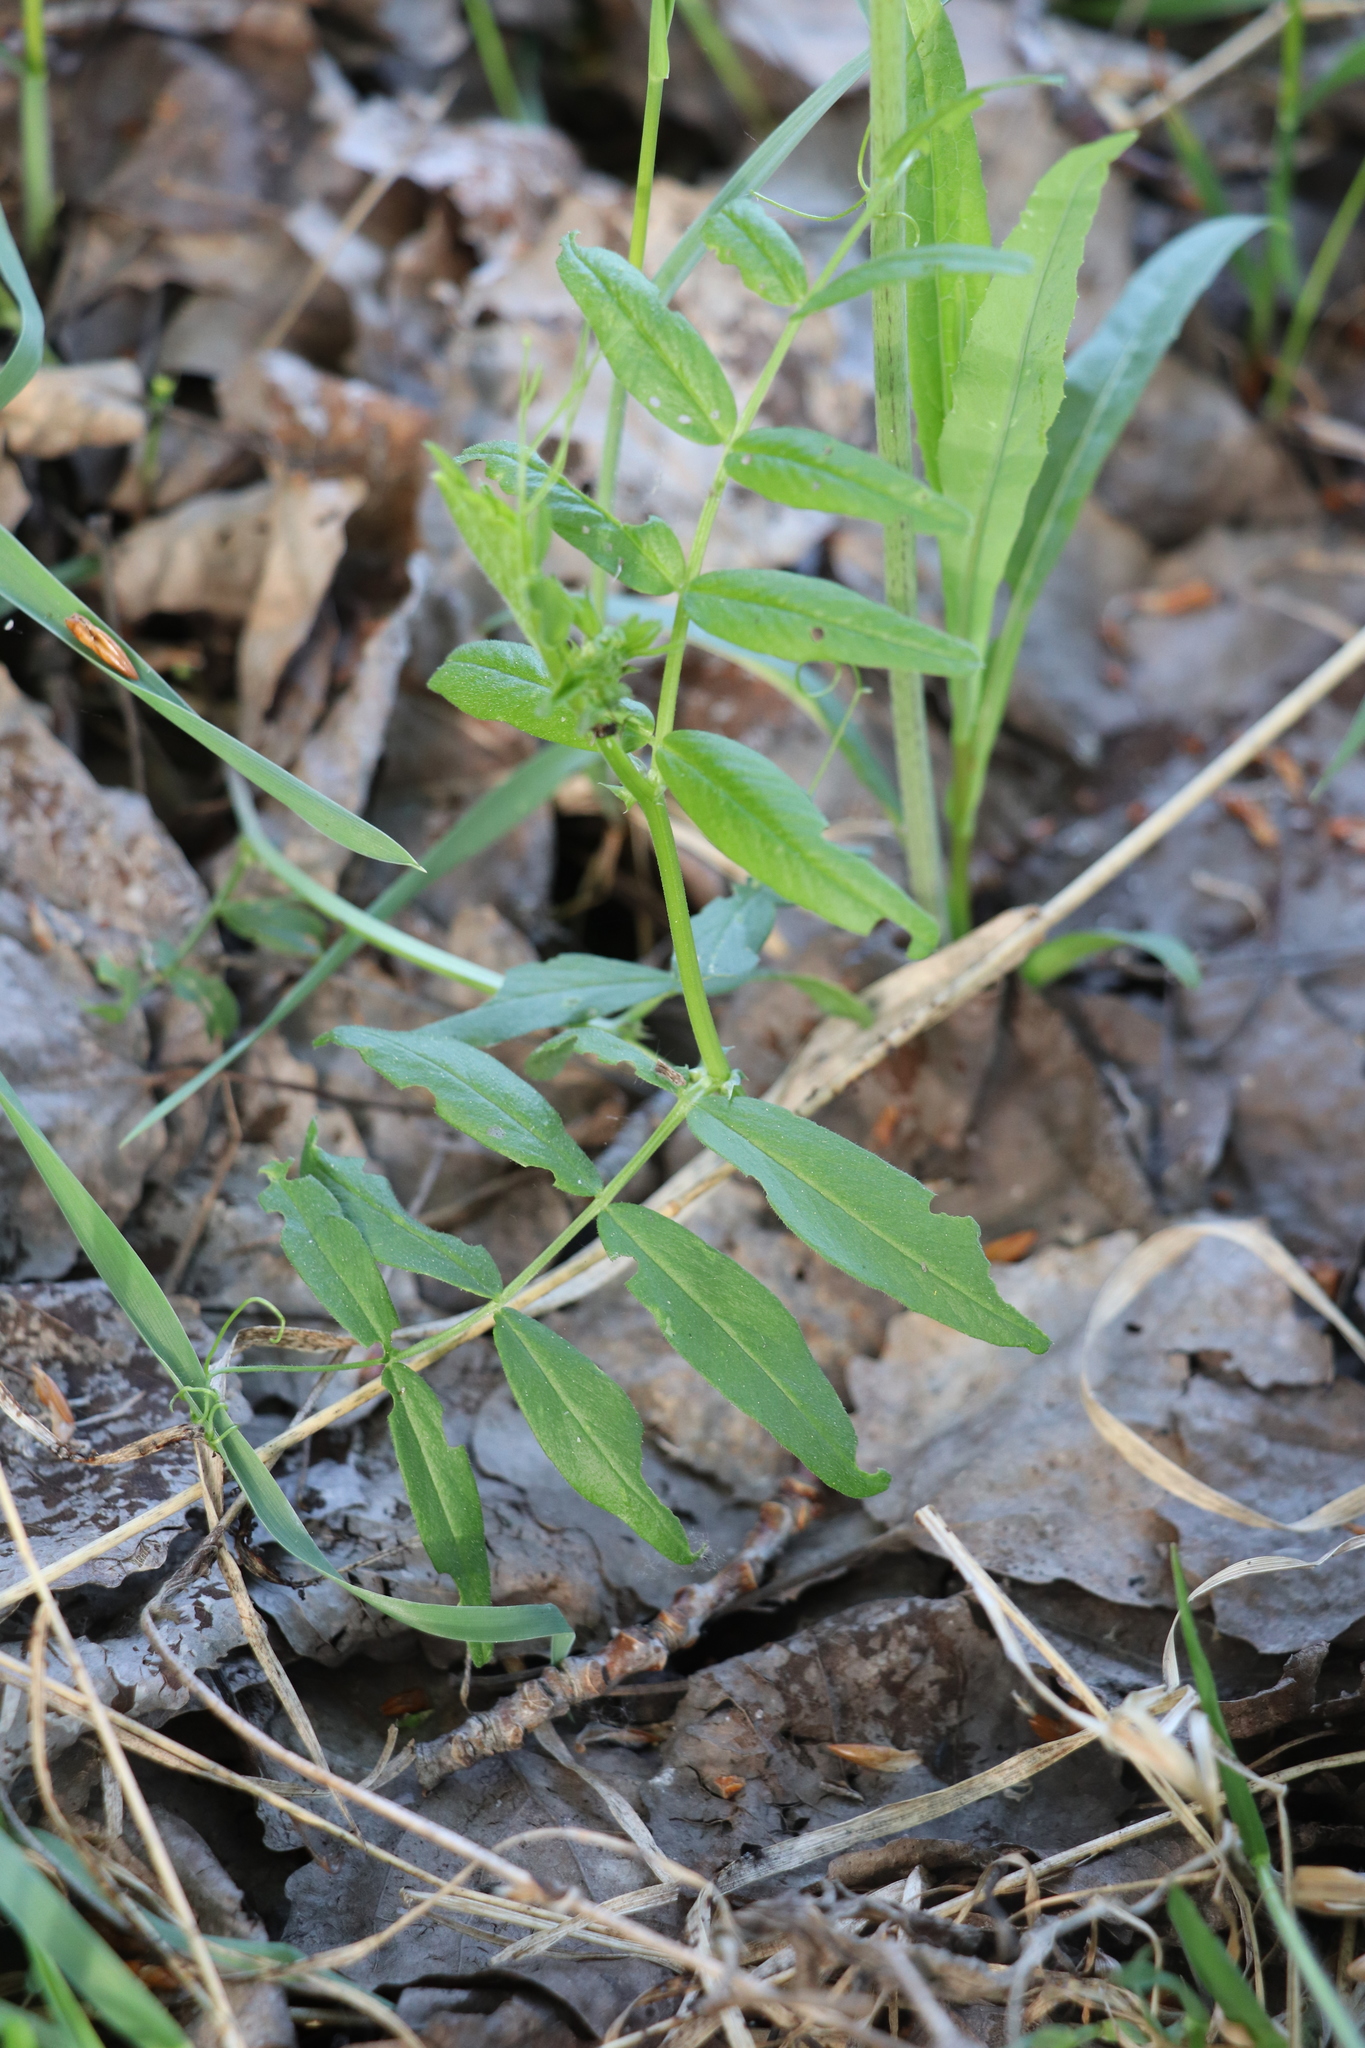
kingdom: Plantae
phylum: Tracheophyta
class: Magnoliopsida
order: Fabales
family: Fabaceae
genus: Vicia
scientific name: Vicia sepium
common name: Bush vetch
